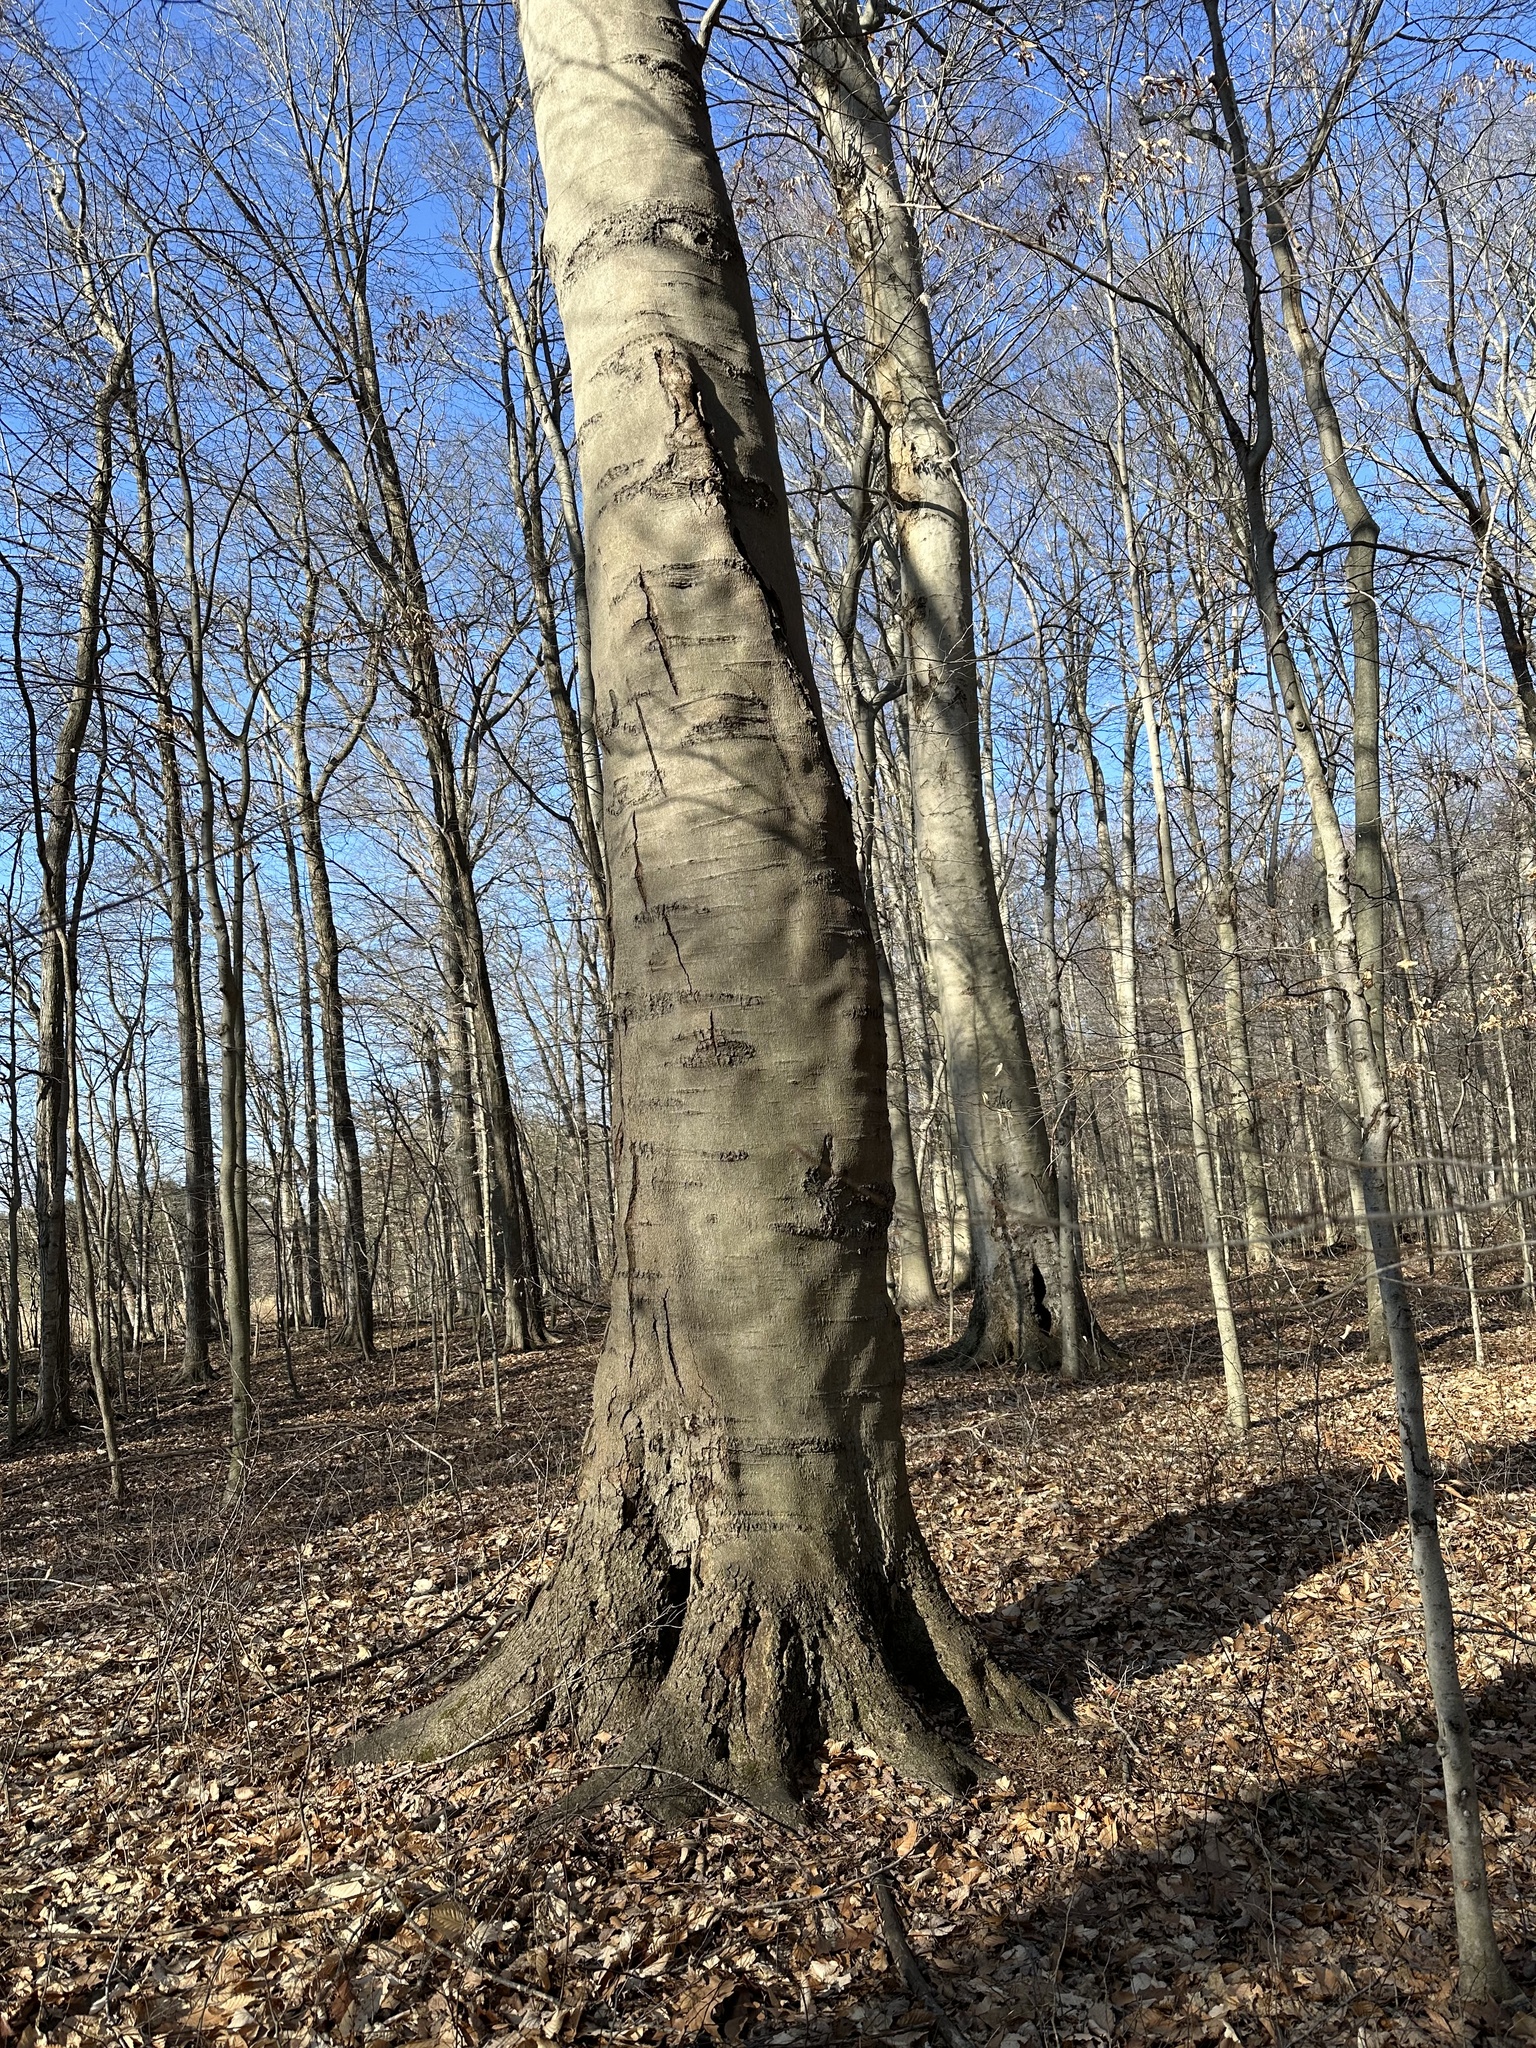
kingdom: Plantae
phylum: Tracheophyta
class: Magnoliopsida
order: Fagales
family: Fagaceae
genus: Fagus
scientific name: Fagus grandifolia
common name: American beech
